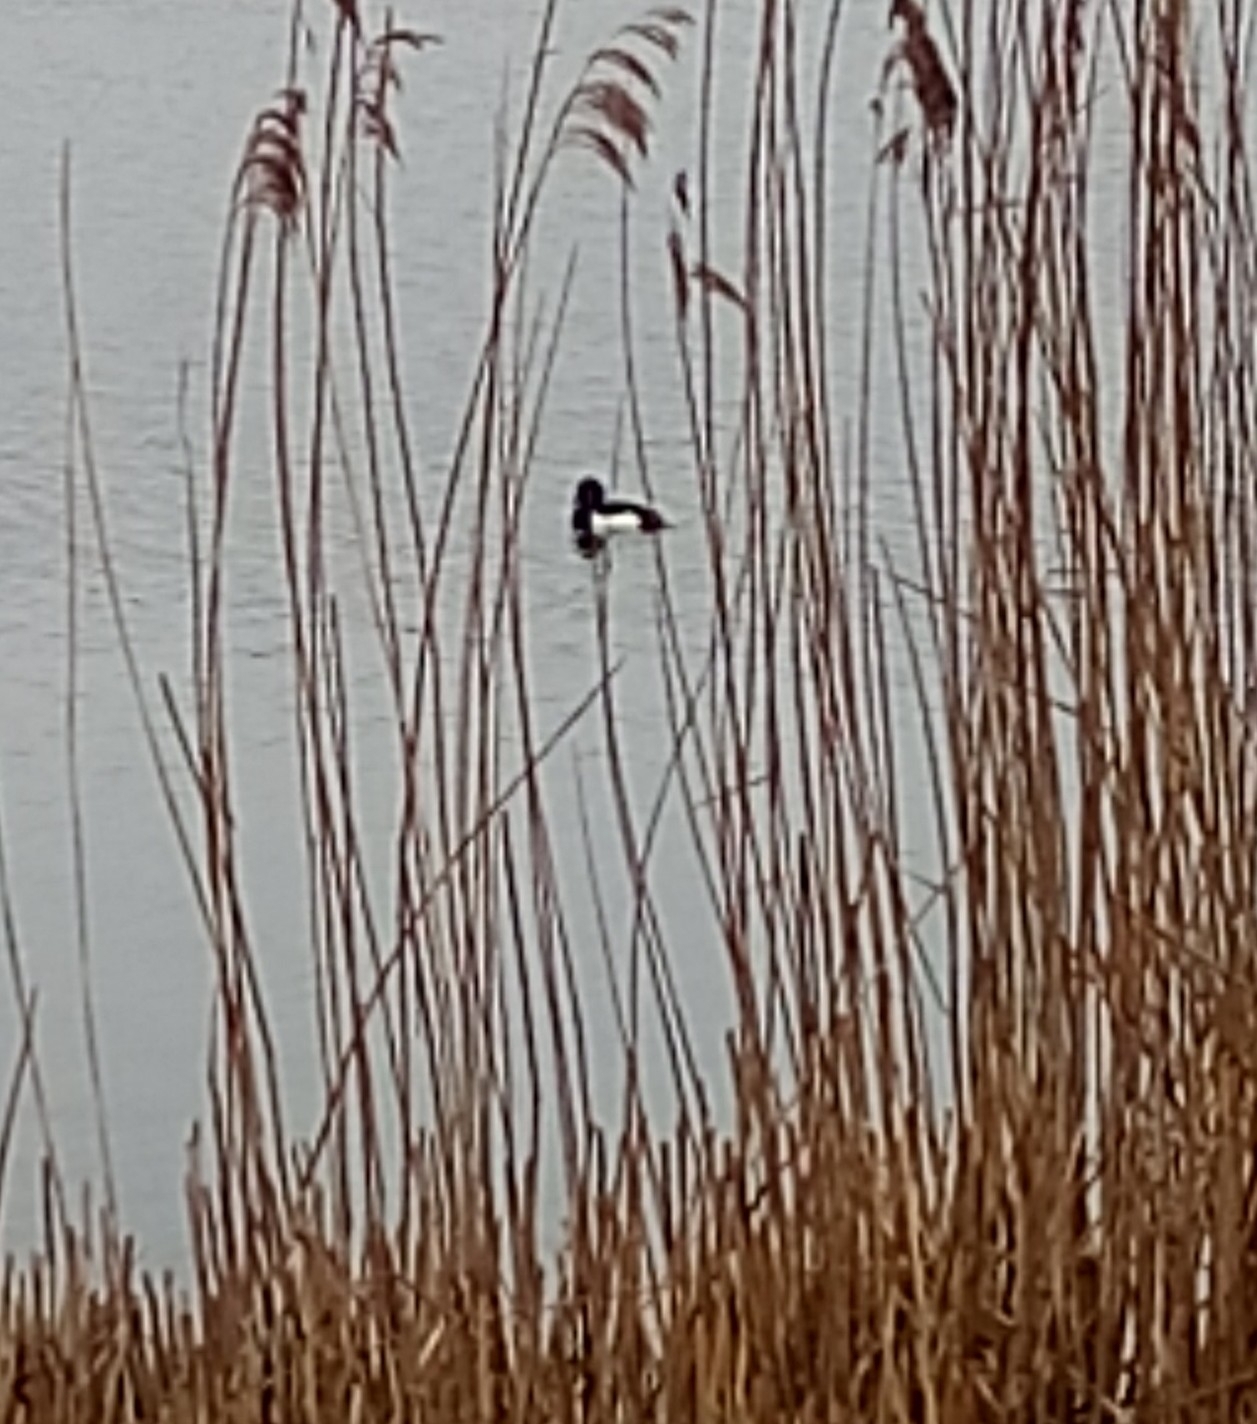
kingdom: Animalia
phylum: Chordata
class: Aves
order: Anseriformes
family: Anatidae
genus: Aythya
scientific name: Aythya fuligula
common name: Tufted duck
